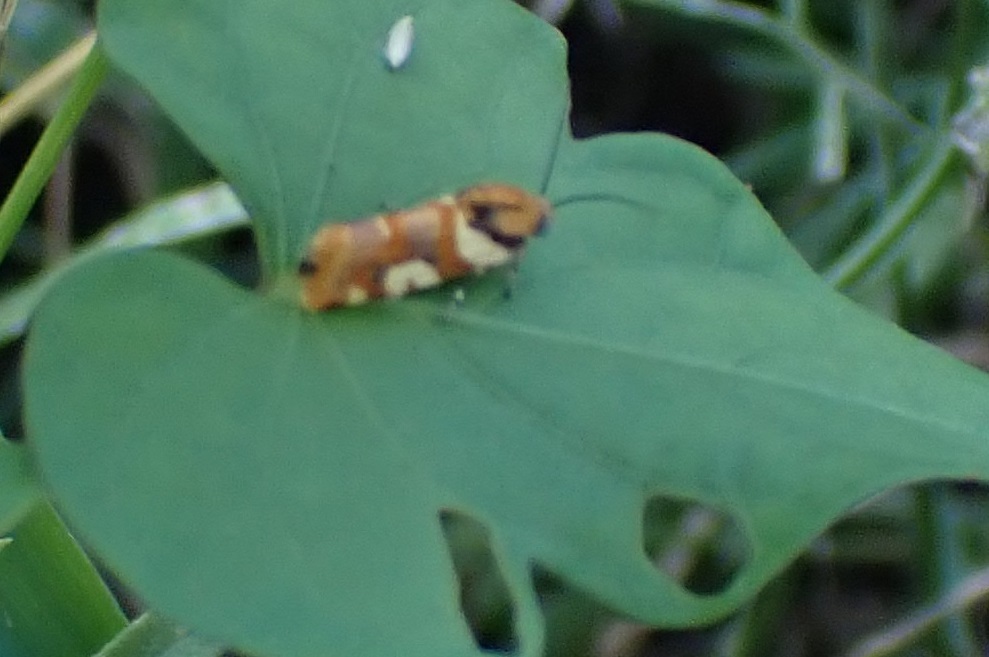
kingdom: Animalia
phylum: Arthropoda
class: Insecta
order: Lepidoptera
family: Noctuidae
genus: Acontia
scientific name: Acontia dama
